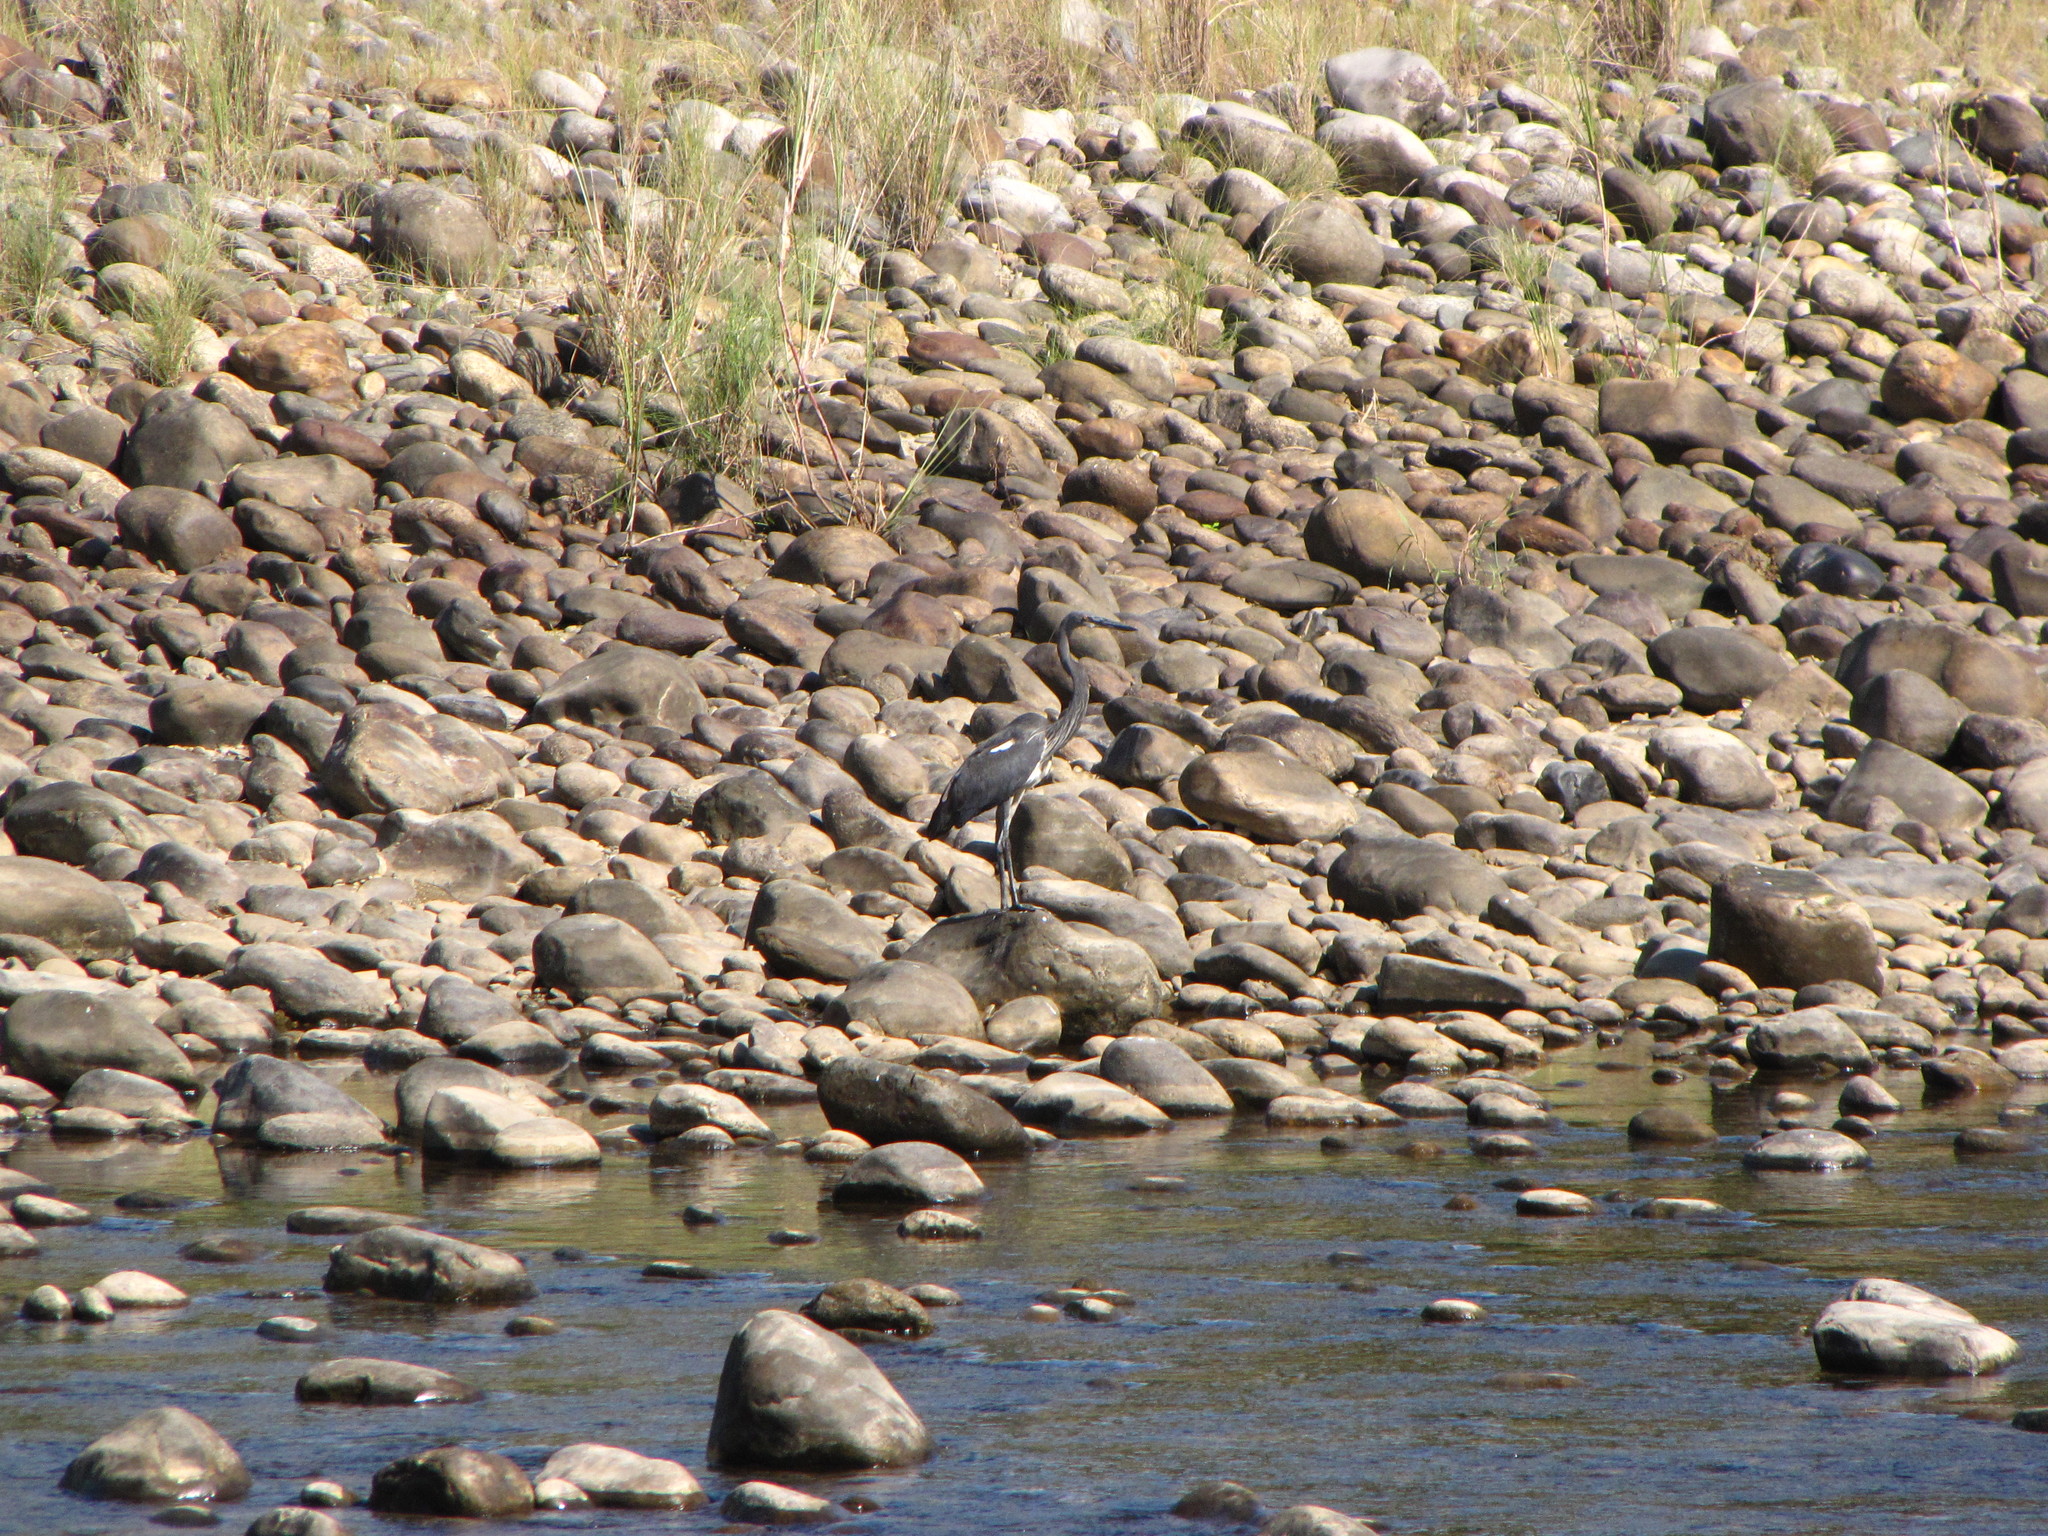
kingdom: Animalia
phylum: Chordata
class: Aves
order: Pelecaniformes
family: Ardeidae
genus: Ardea
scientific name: Ardea insignis
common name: White-bellied heron
